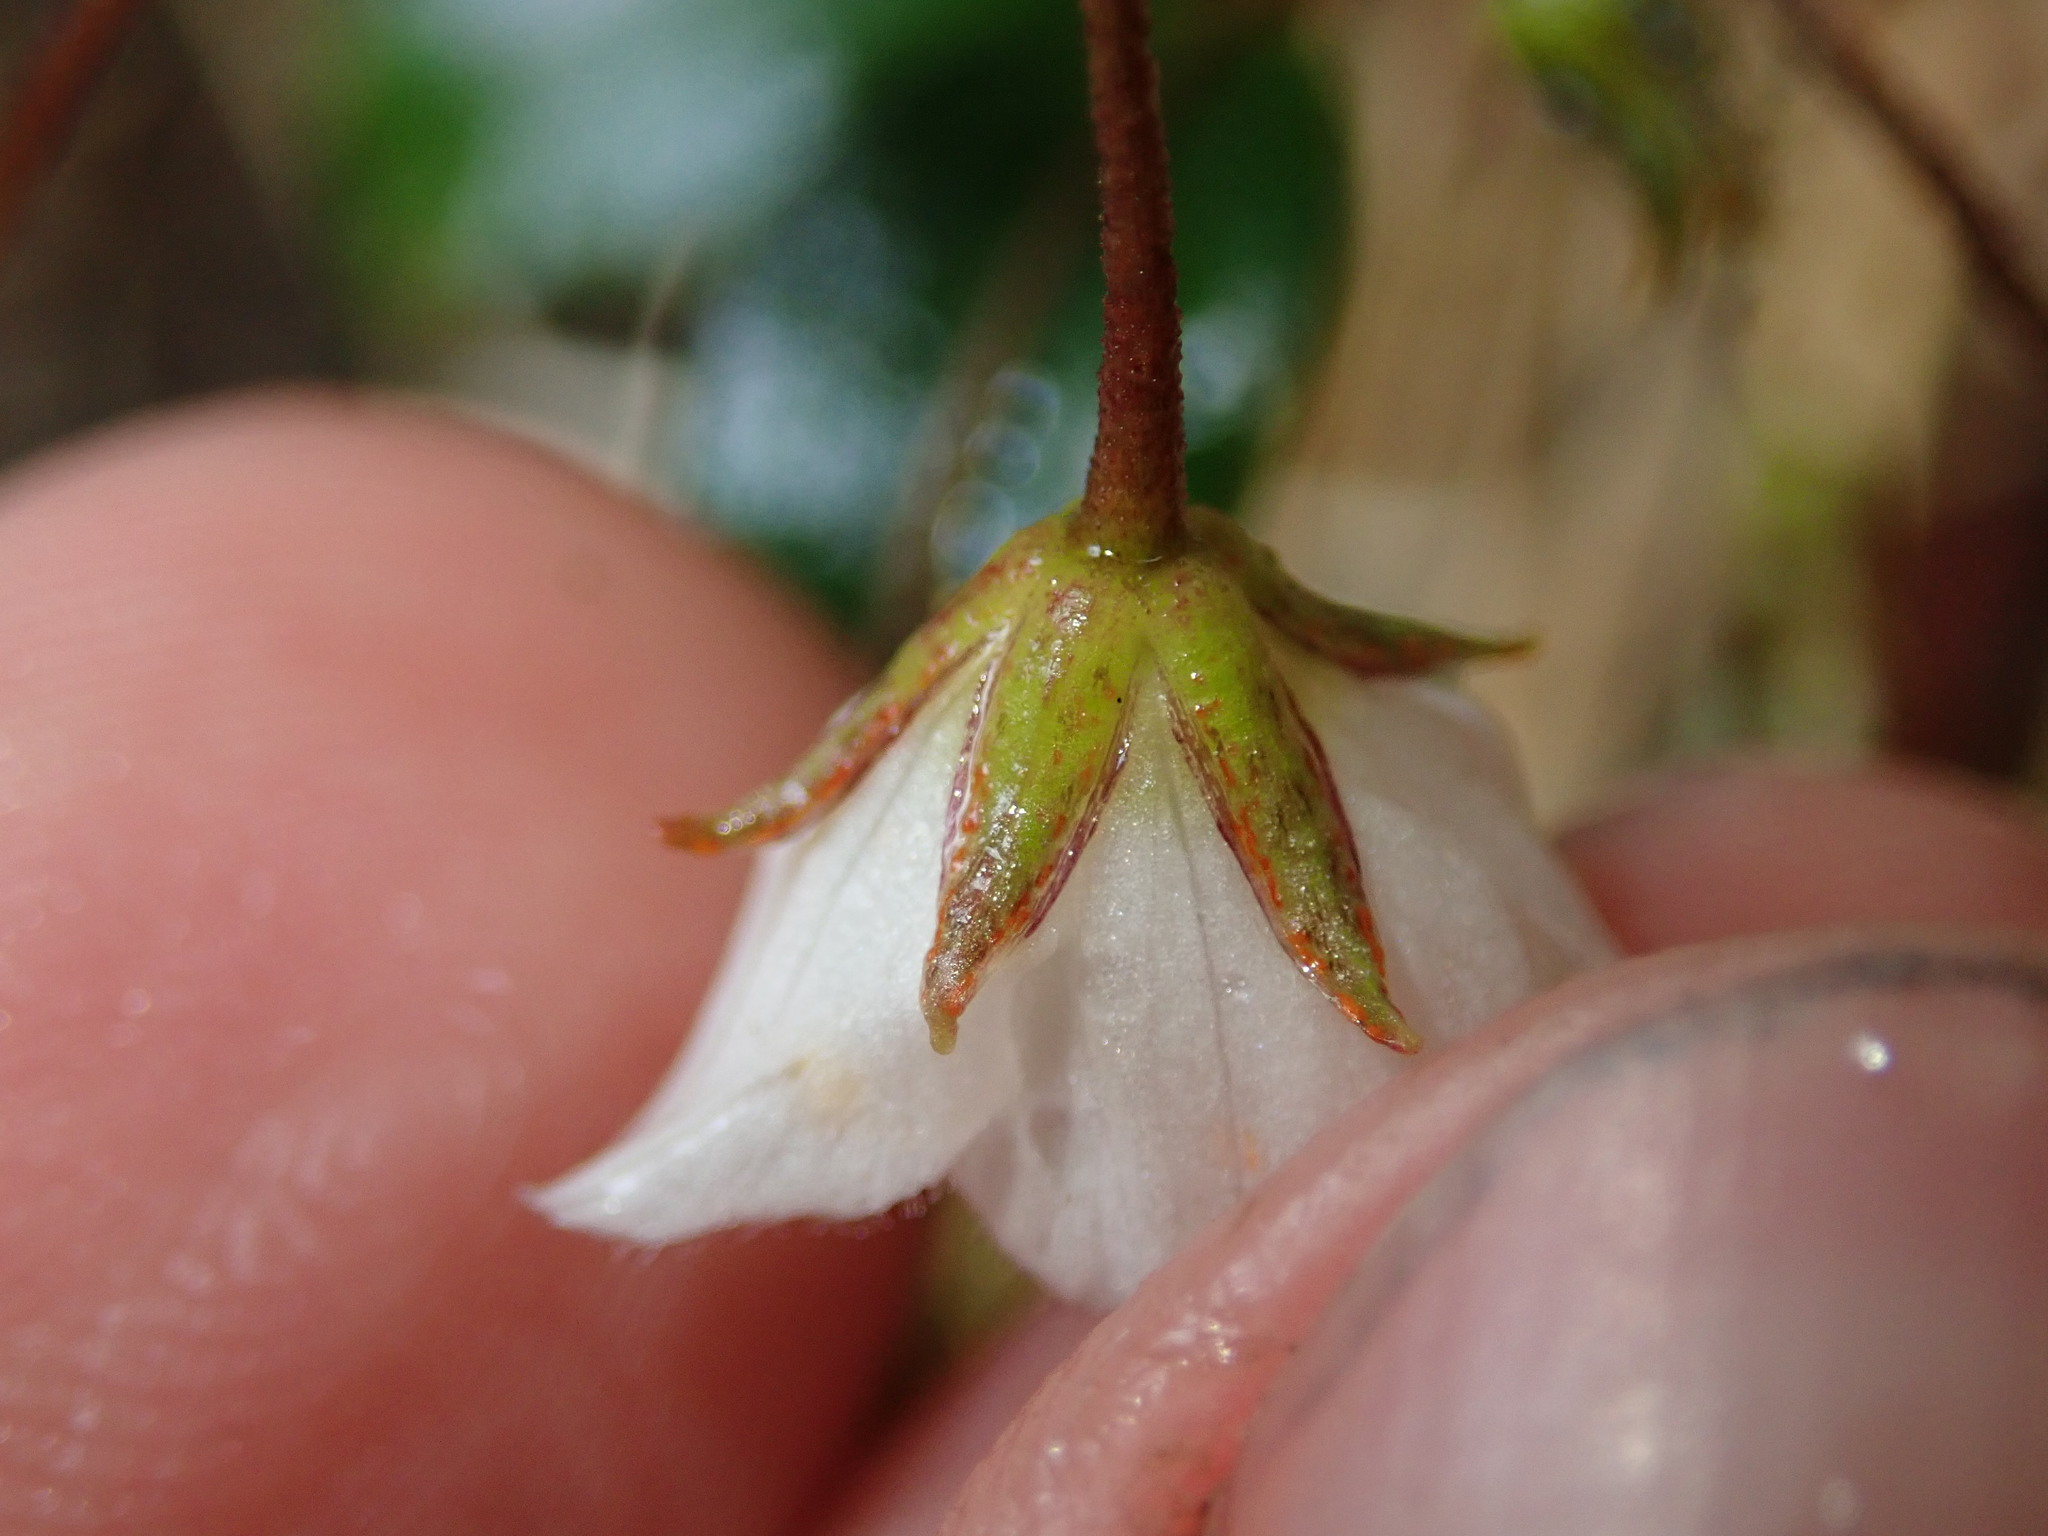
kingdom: Plantae
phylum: Tracheophyta
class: Magnoliopsida
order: Ericales
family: Primulaceae
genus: Lysimachia
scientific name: Lysimachia andina
